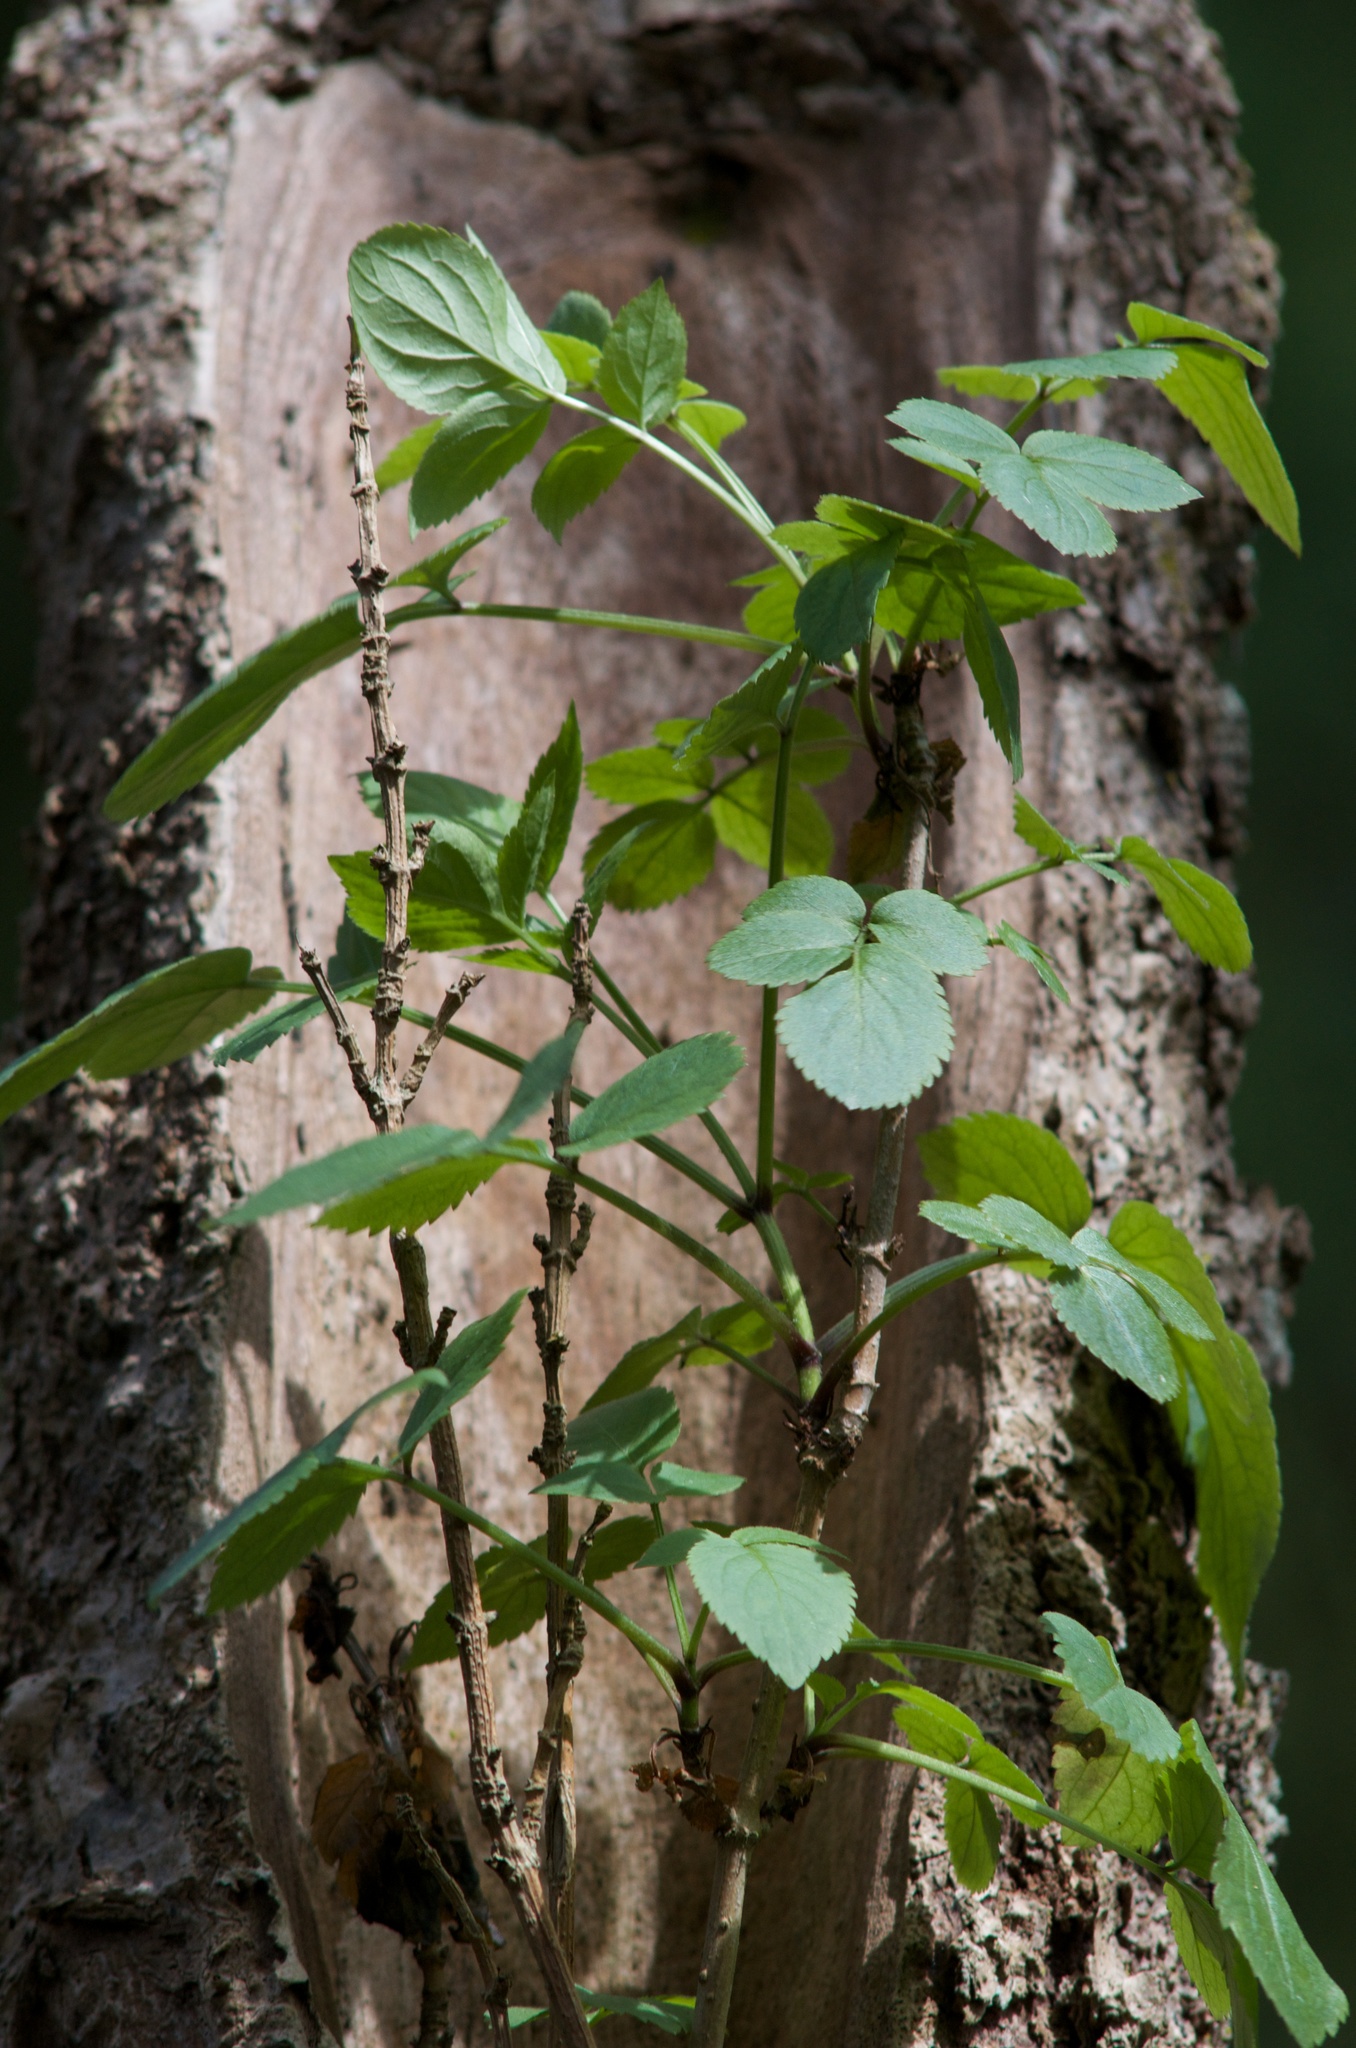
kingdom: Plantae
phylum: Tracheophyta
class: Magnoliopsida
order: Dipsacales
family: Viburnaceae
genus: Sambucus
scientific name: Sambucus nigra
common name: Elder
